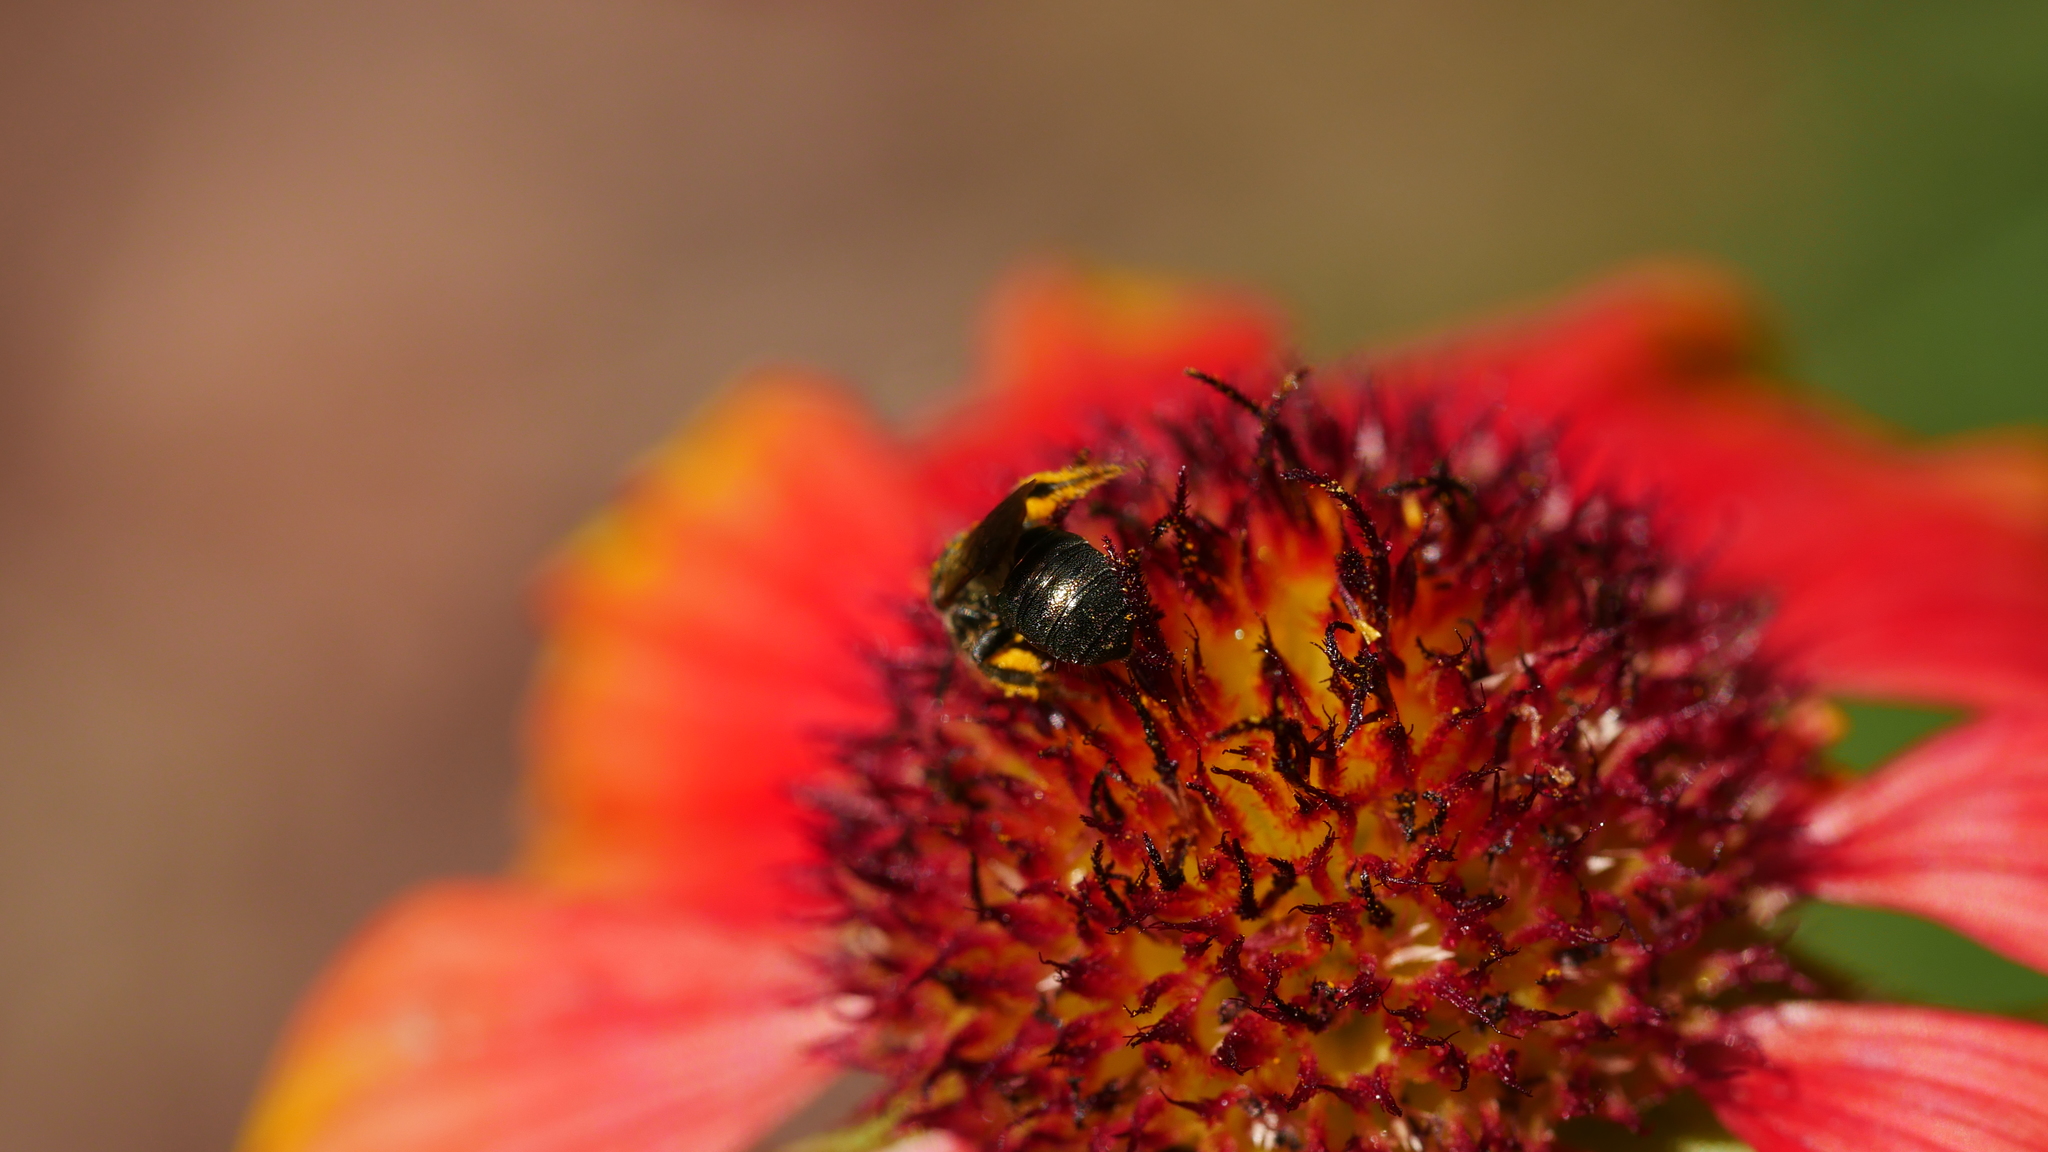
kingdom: Animalia
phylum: Arthropoda
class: Insecta
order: Hymenoptera
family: Apidae
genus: Zadontomerus
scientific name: Zadontomerus
